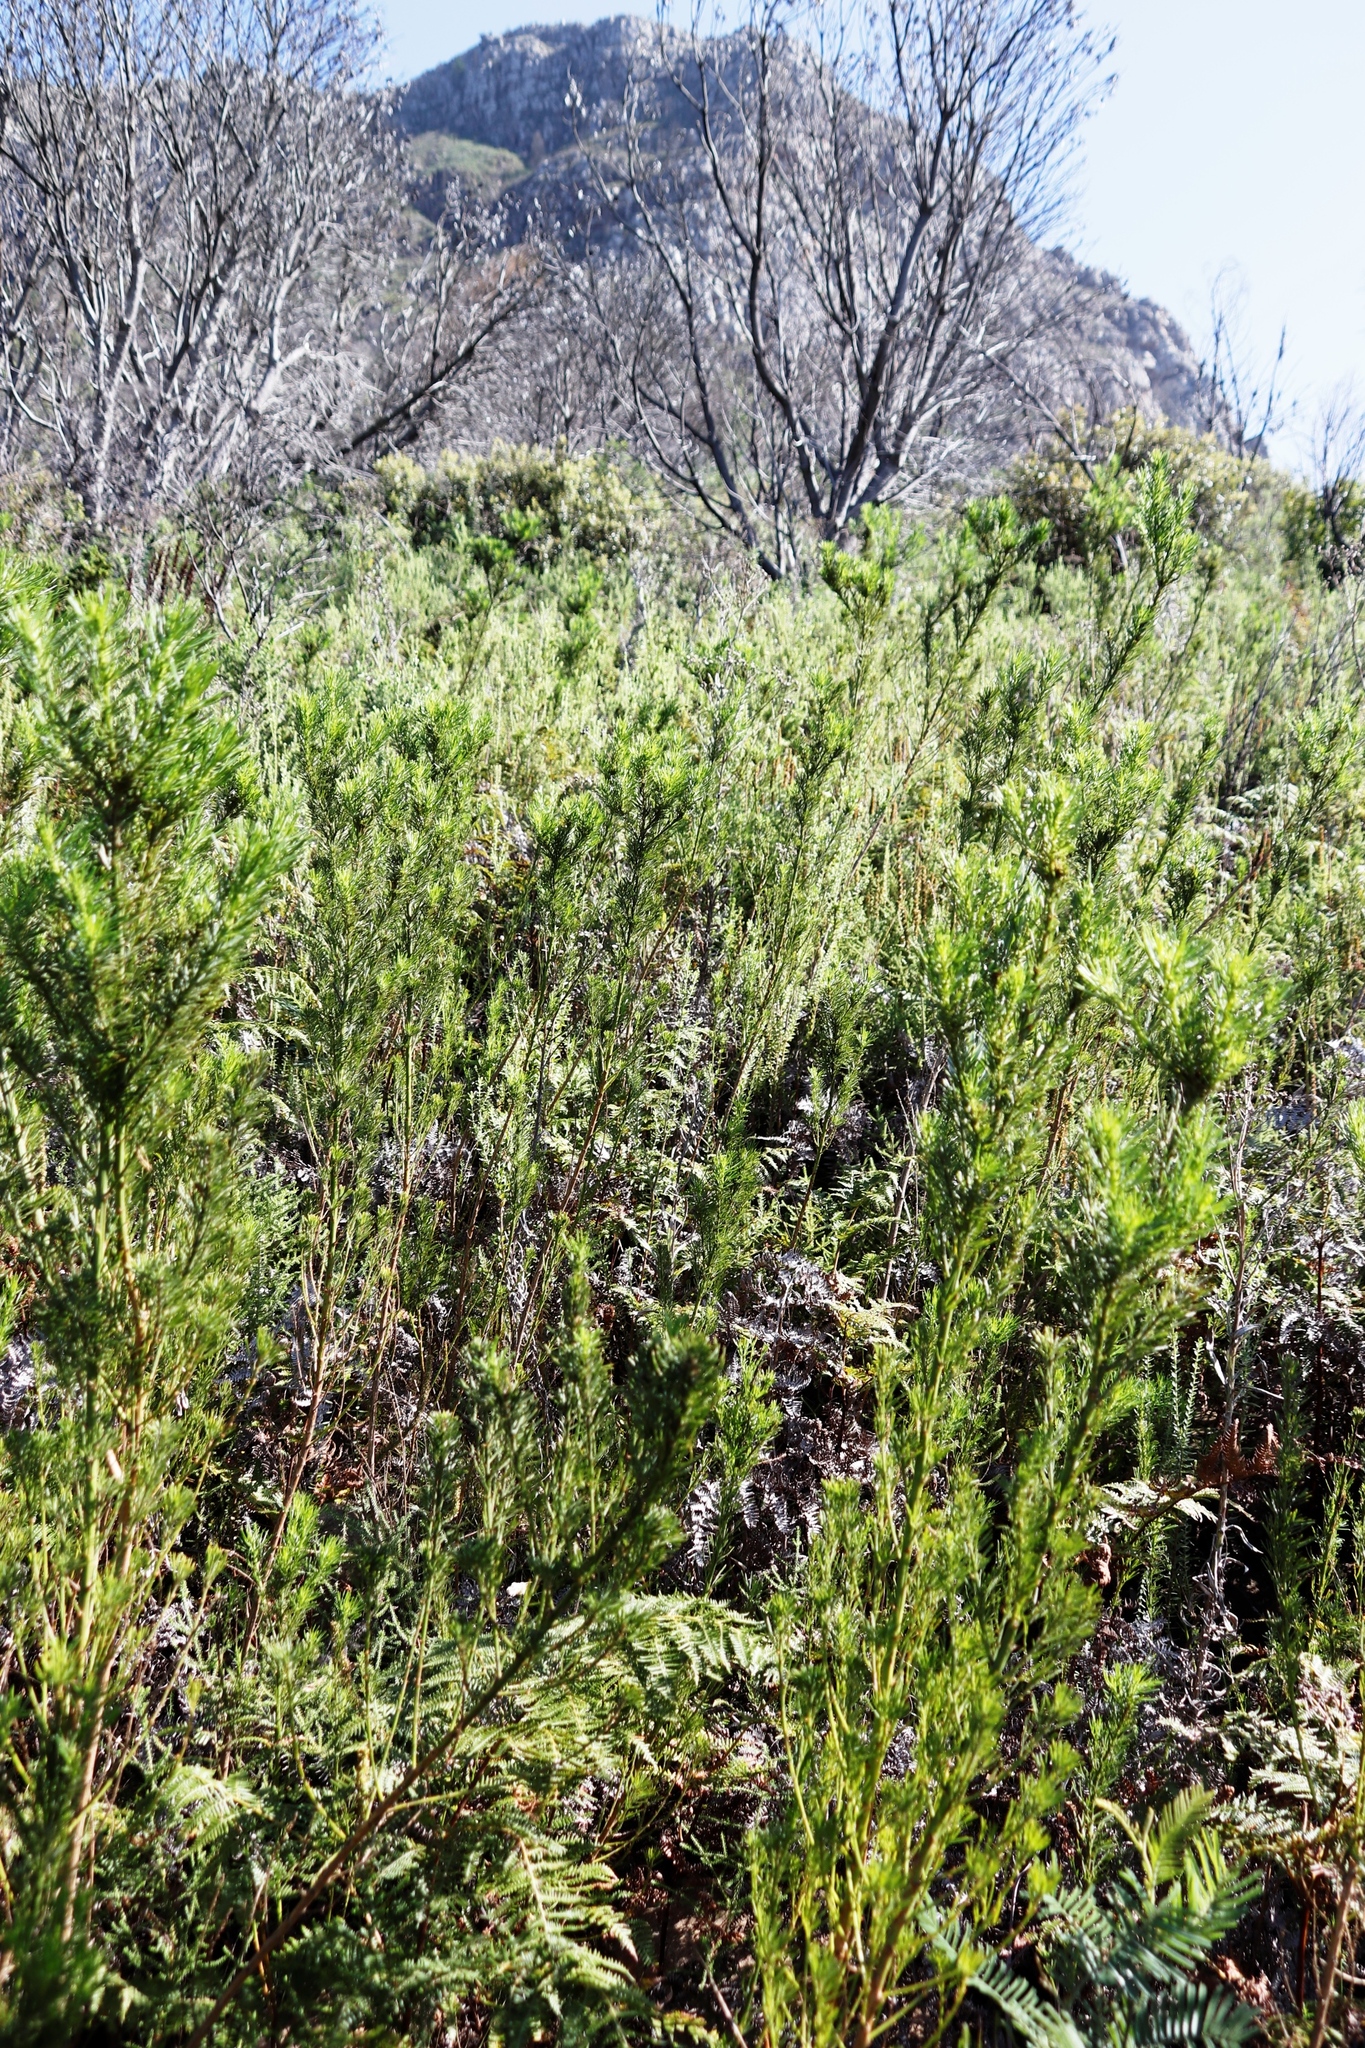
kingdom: Plantae
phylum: Tracheophyta
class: Magnoliopsida
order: Fabales
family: Fabaceae
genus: Psoralea
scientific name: Psoralea pinnata
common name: African scurfpea
